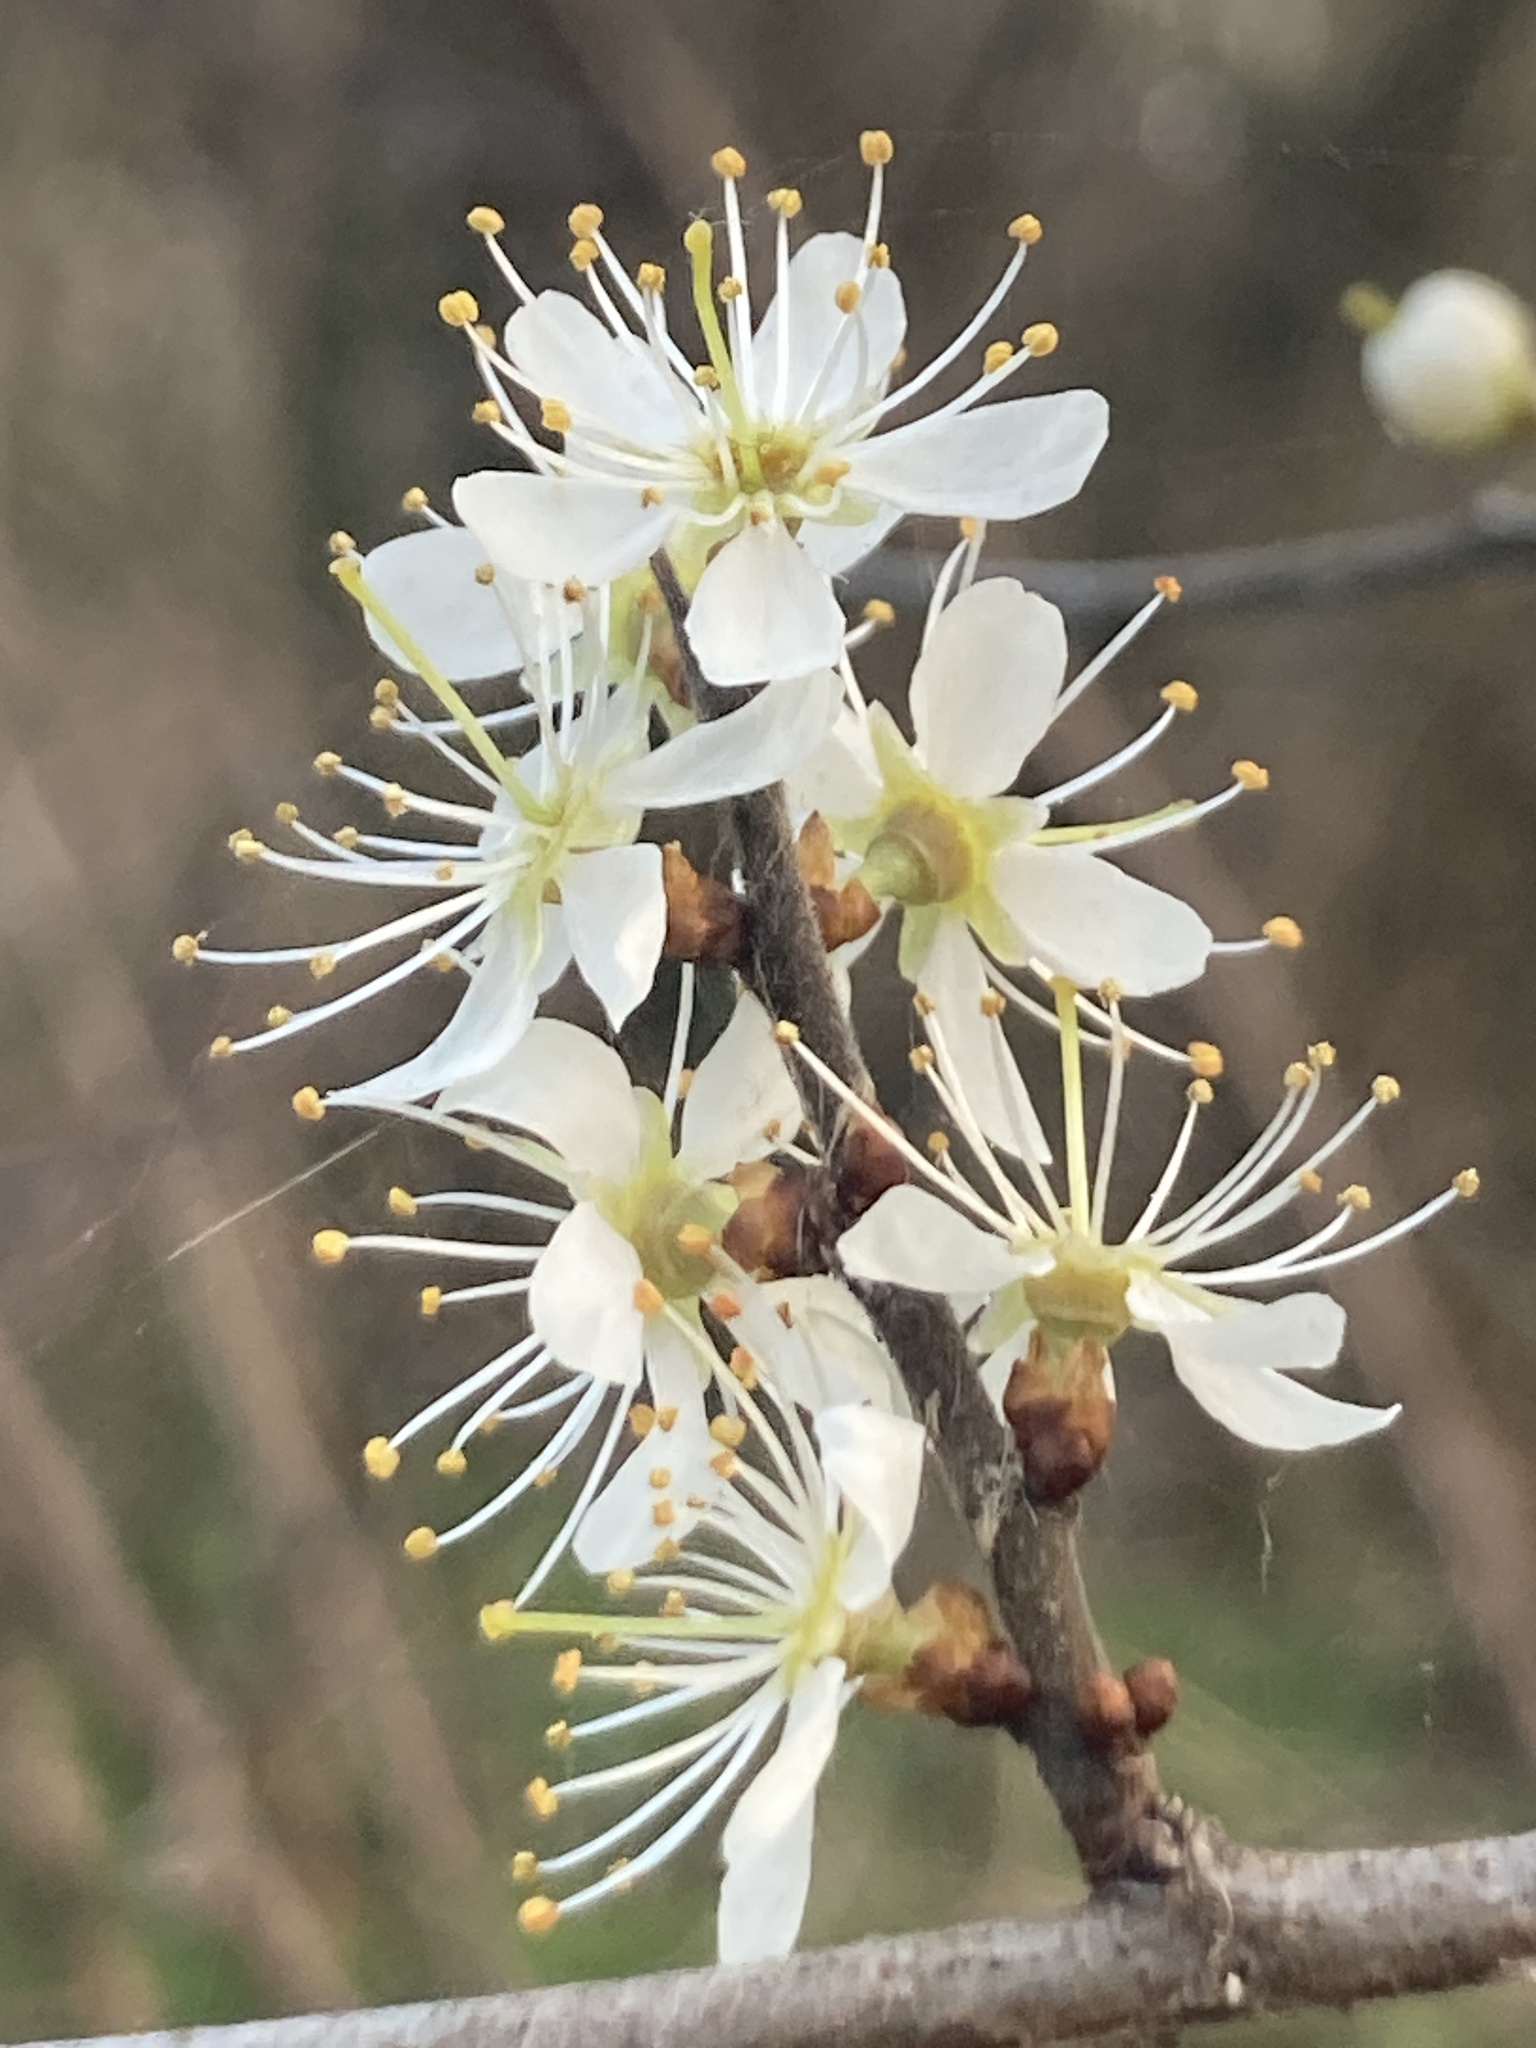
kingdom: Plantae
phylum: Tracheophyta
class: Magnoliopsida
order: Rosales
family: Rosaceae
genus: Prunus
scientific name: Prunus spinosa
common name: Blackthorn
